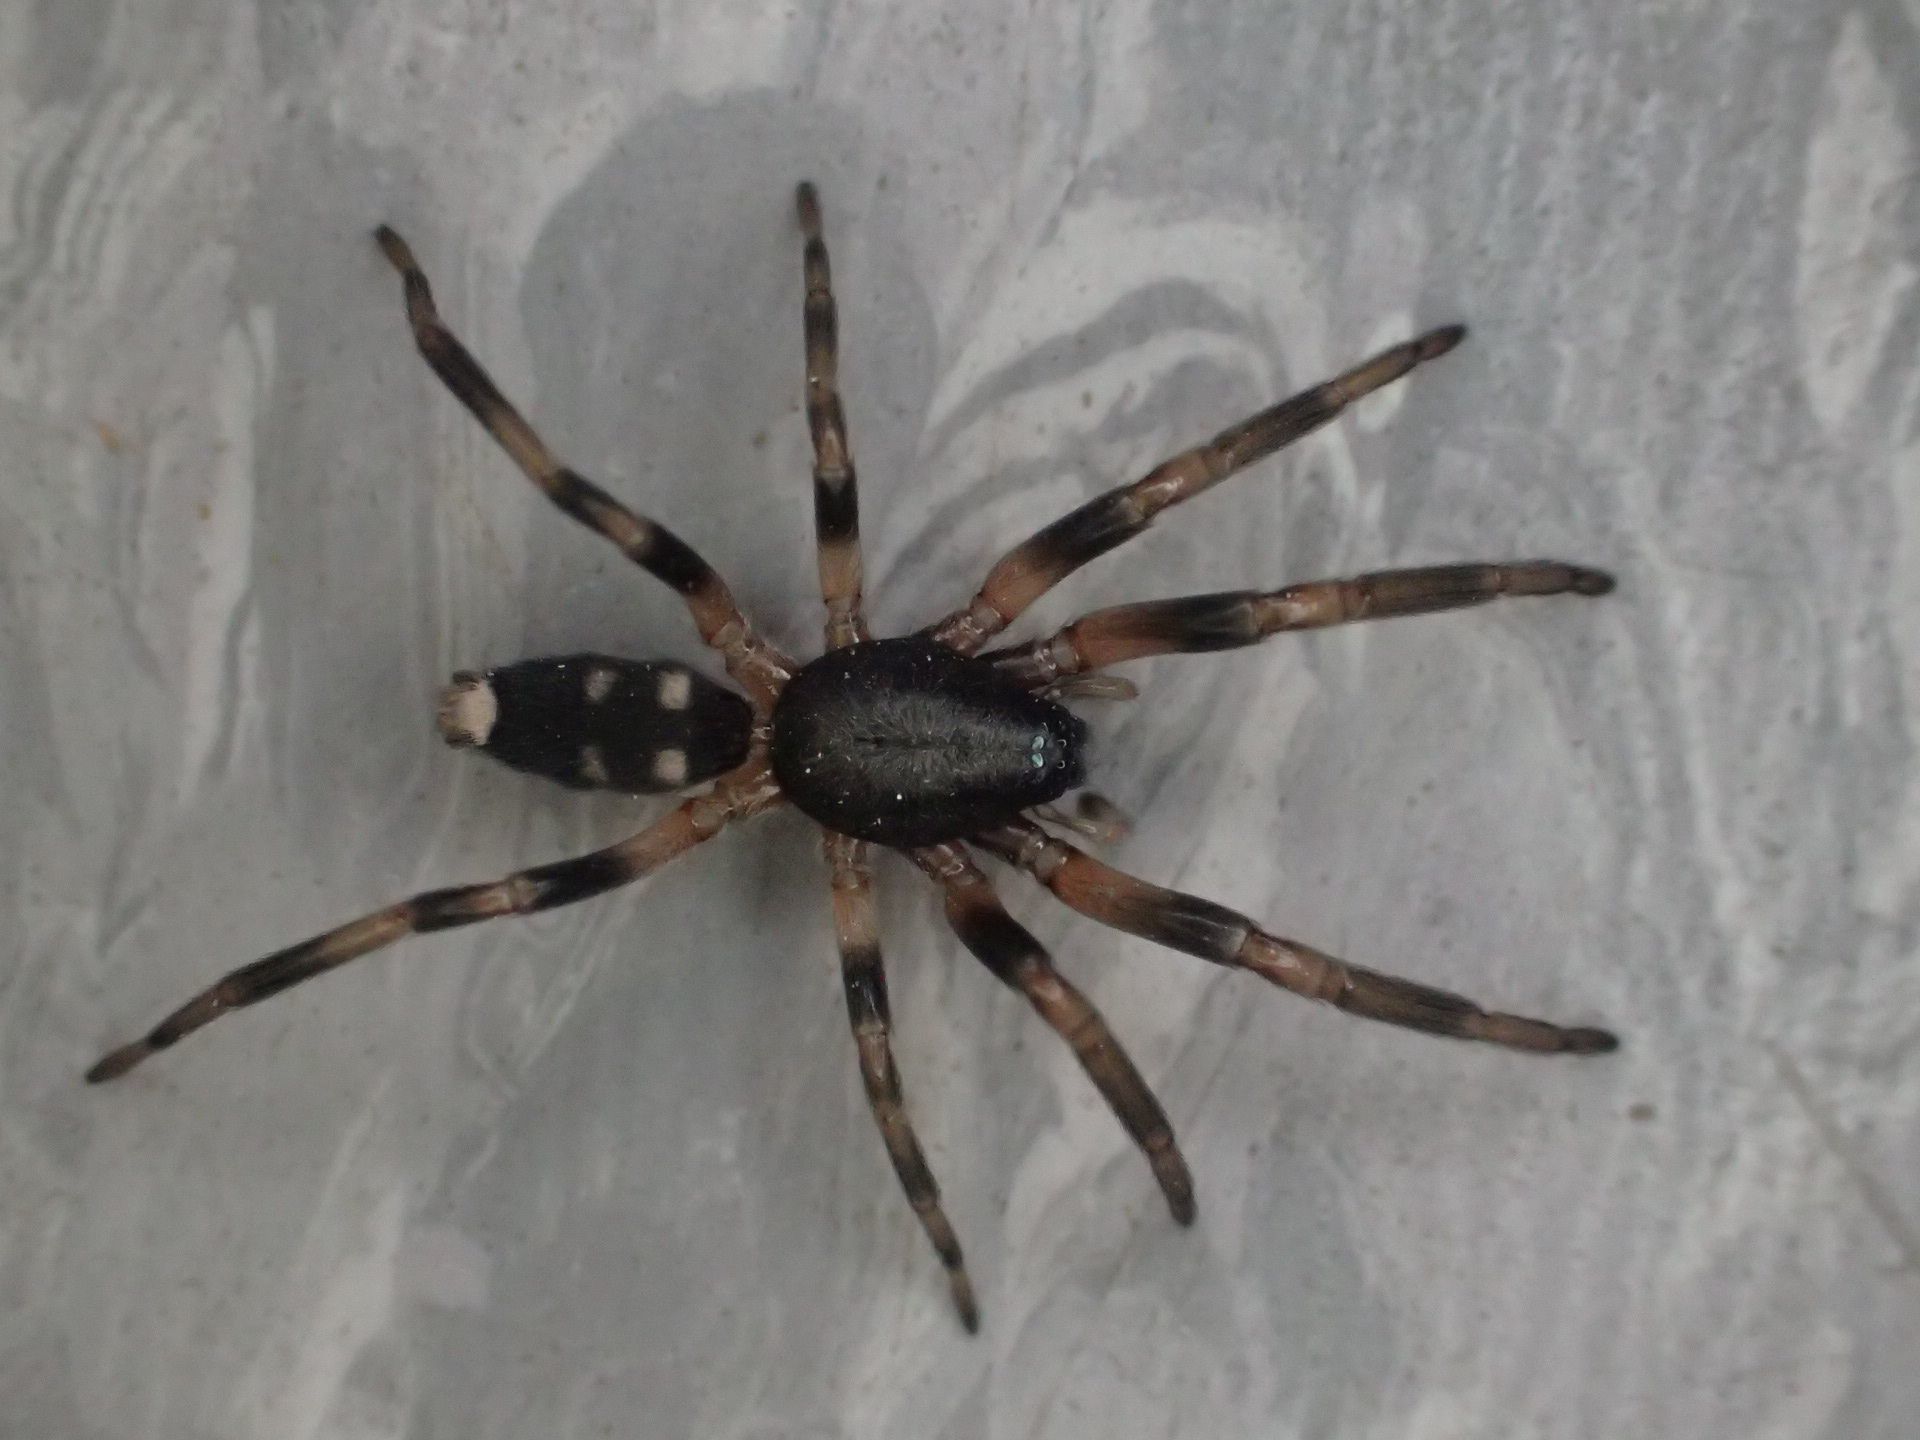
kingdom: Animalia
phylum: Arthropoda
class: Arachnida
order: Araneae
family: Lamponidae
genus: Lampona
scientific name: Lampona cylindrata
